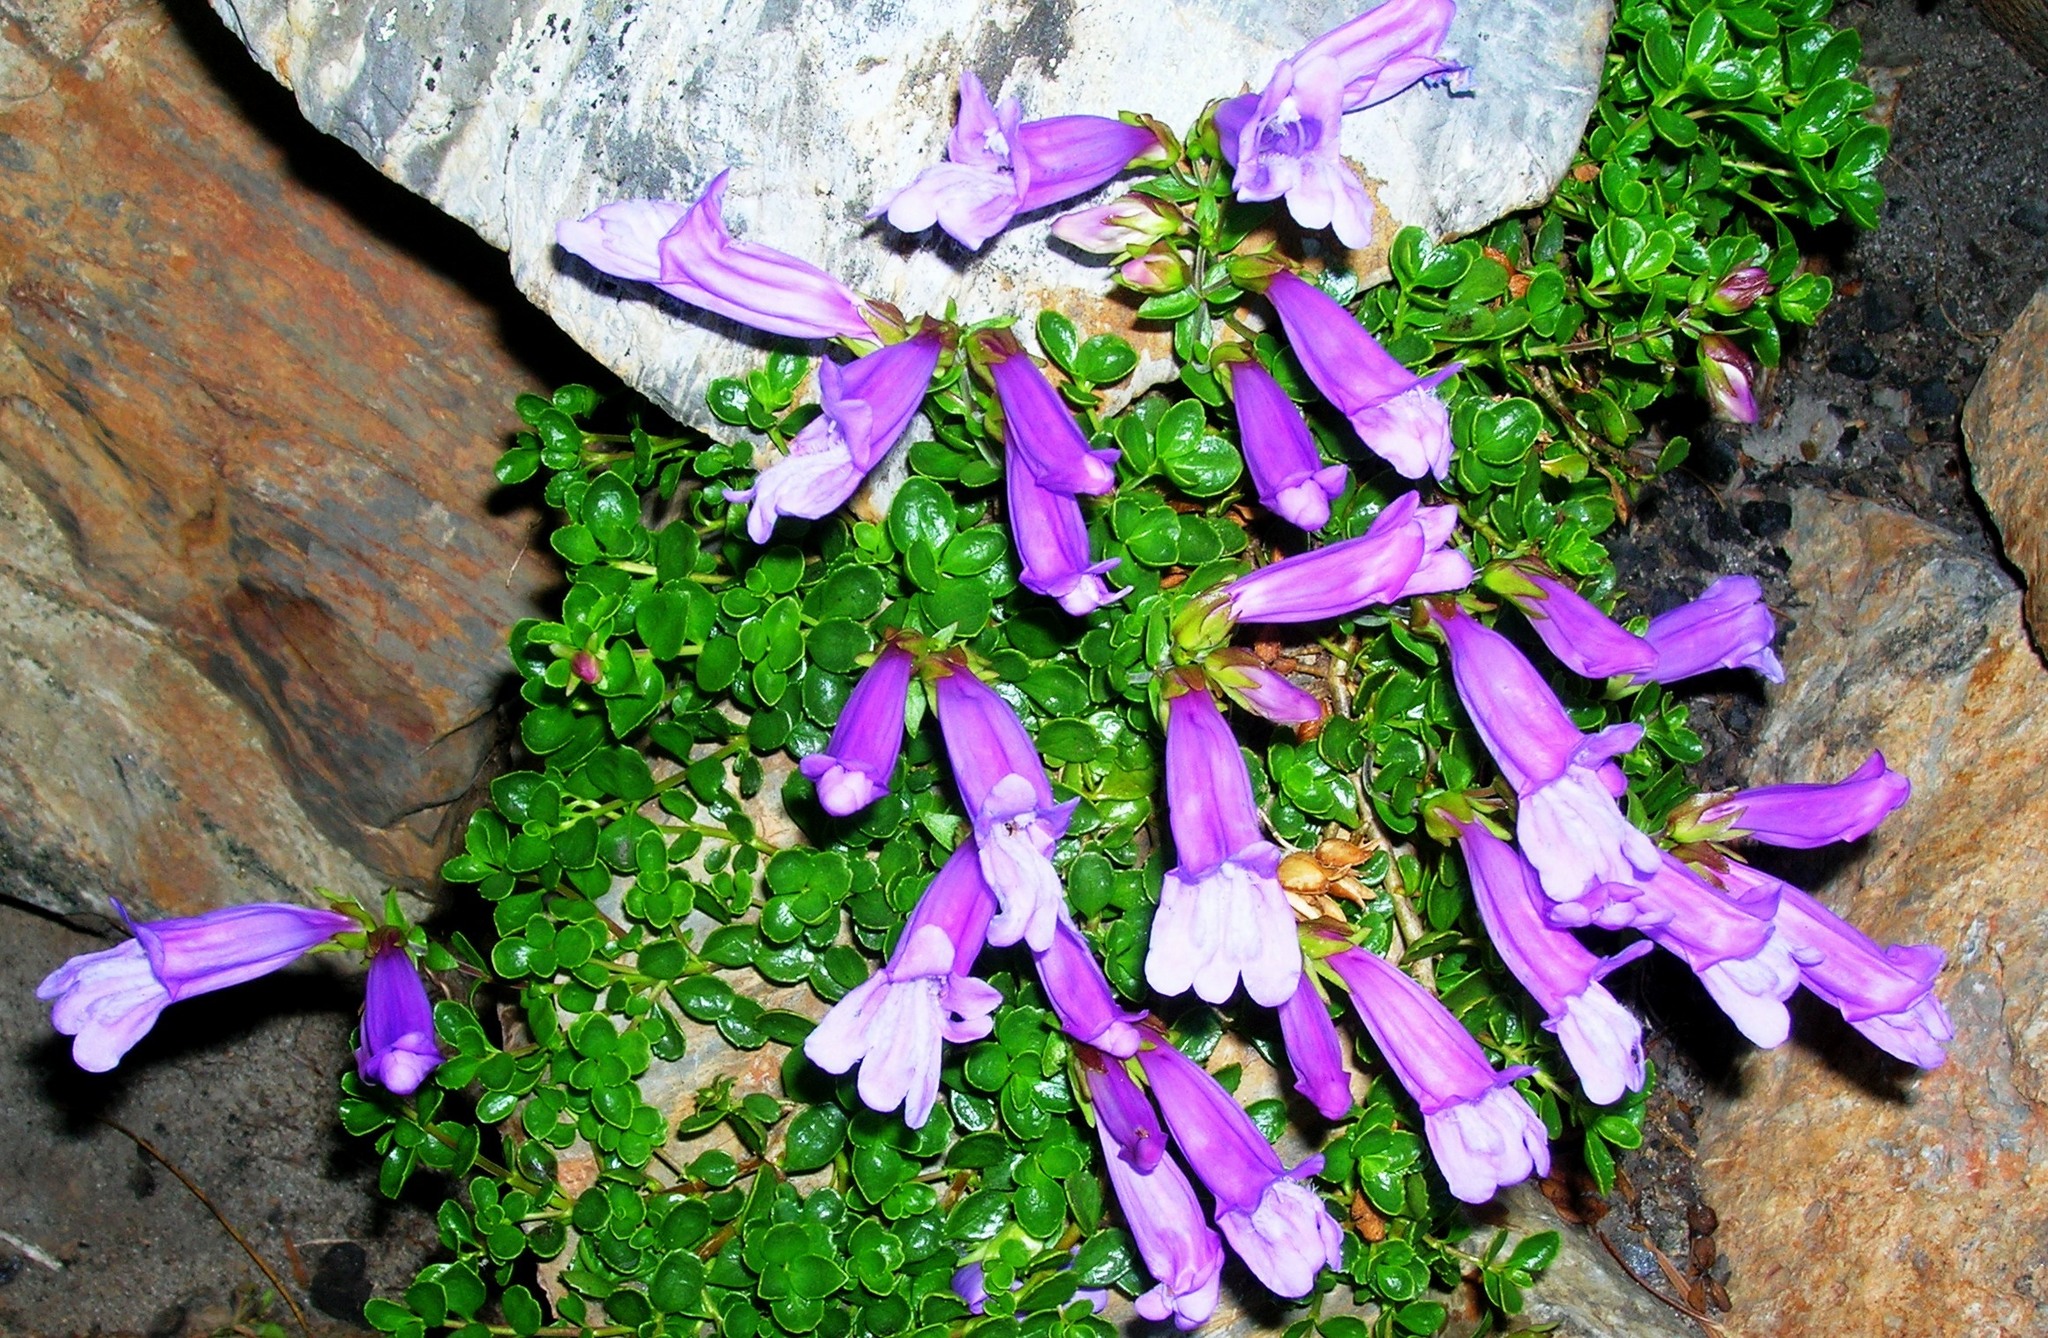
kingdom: Plantae
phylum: Tracheophyta
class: Magnoliopsida
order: Lamiales
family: Plantaginaceae
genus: Penstemon
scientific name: Penstemon davidsonii
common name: Davidson's penstemon
